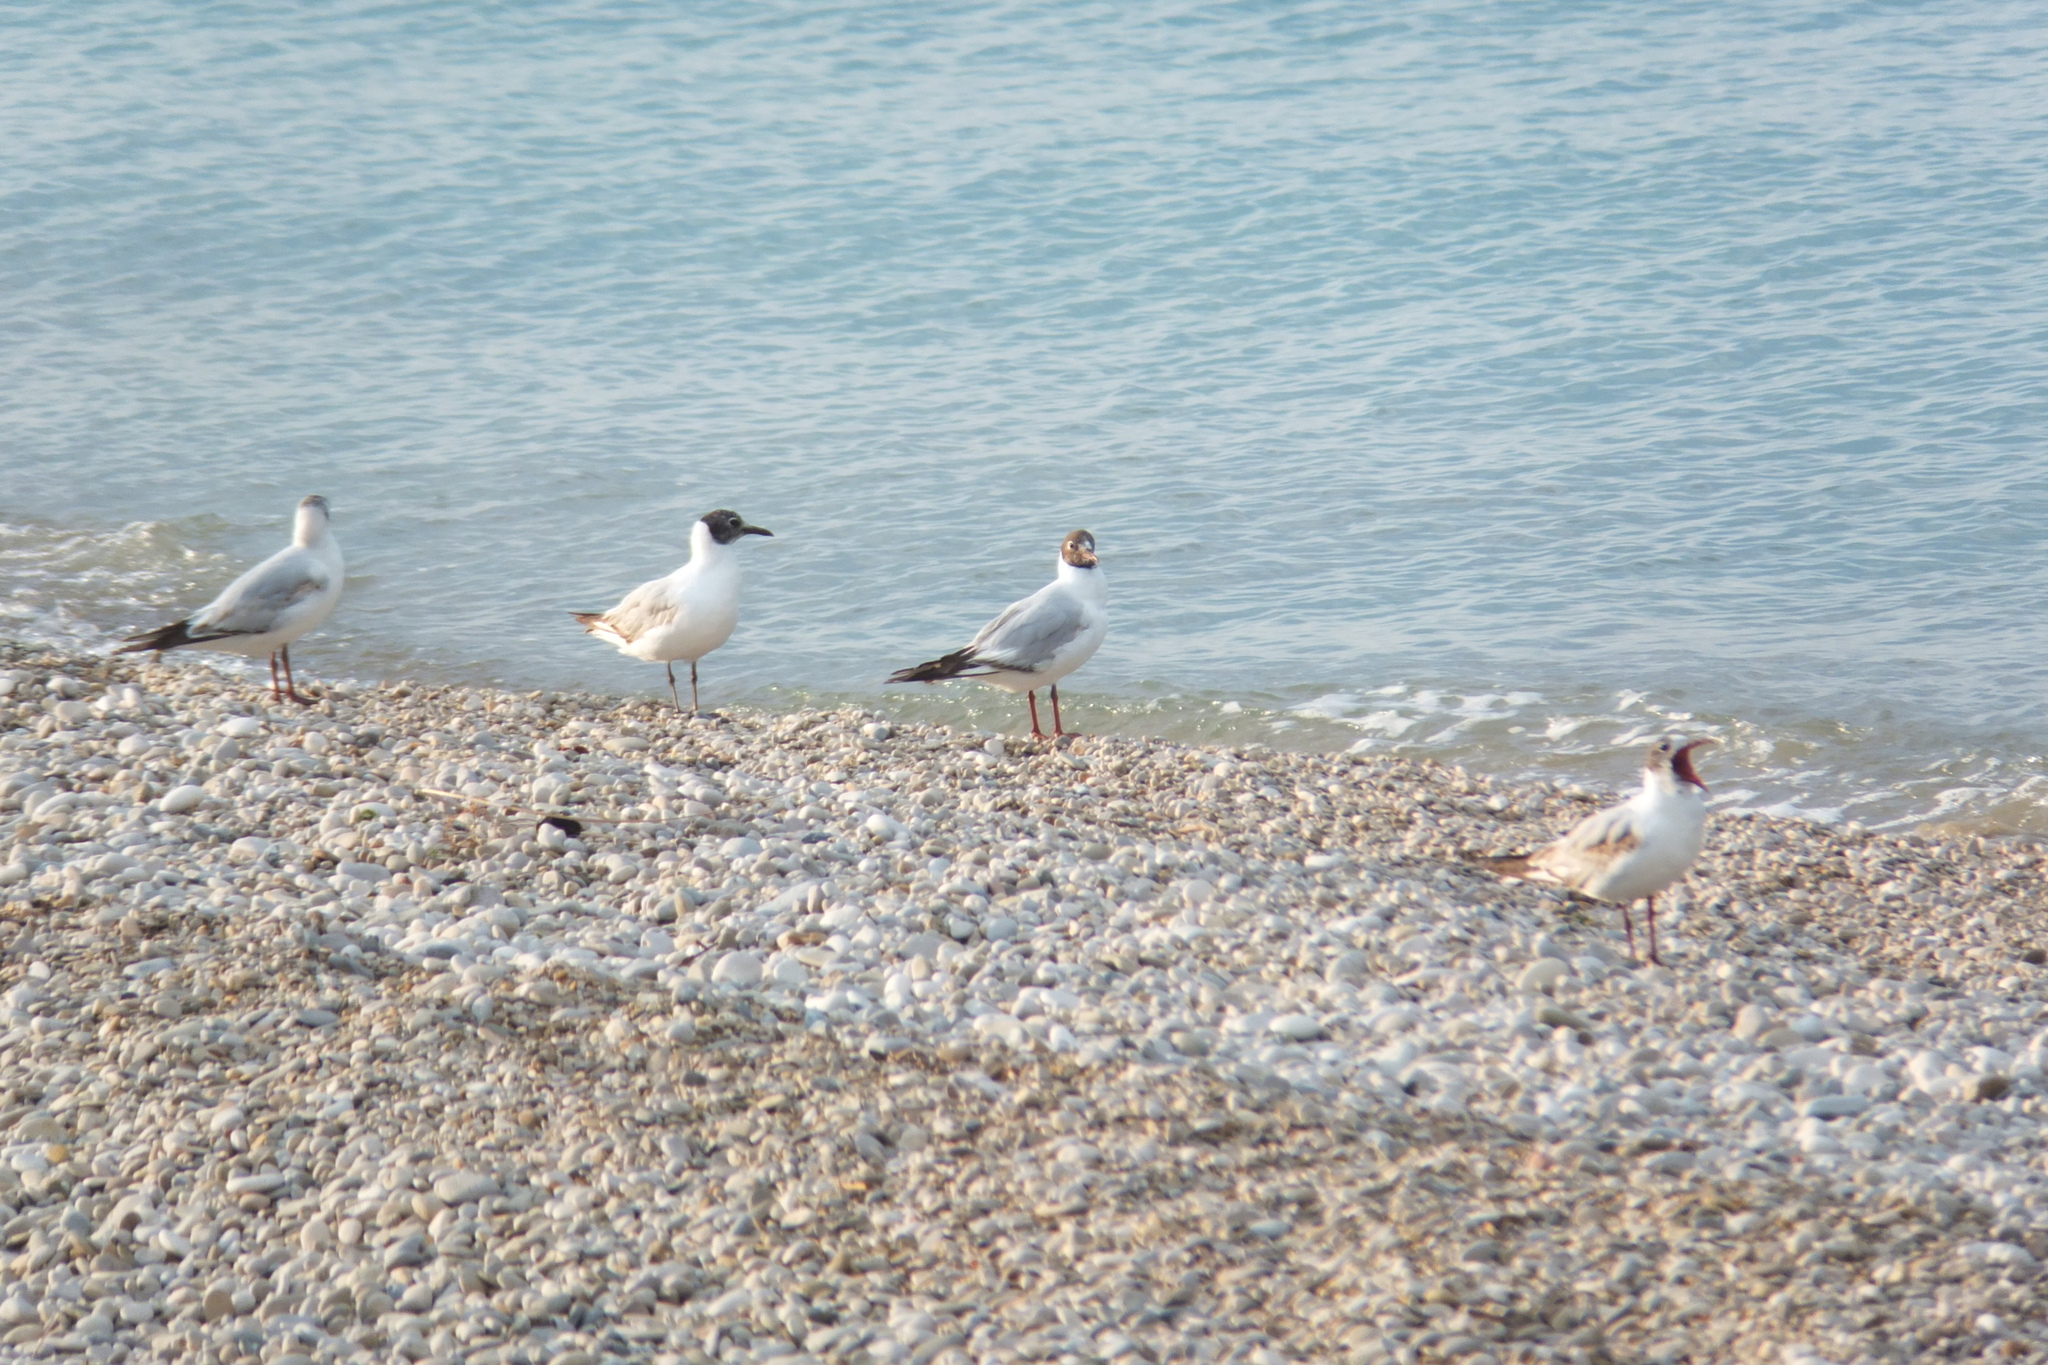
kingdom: Animalia
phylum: Chordata
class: Aves
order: Charadriiformes
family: Laridae
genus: Chroicocephalus
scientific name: Chroicocephalus ridibundus
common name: Black-headed gull
